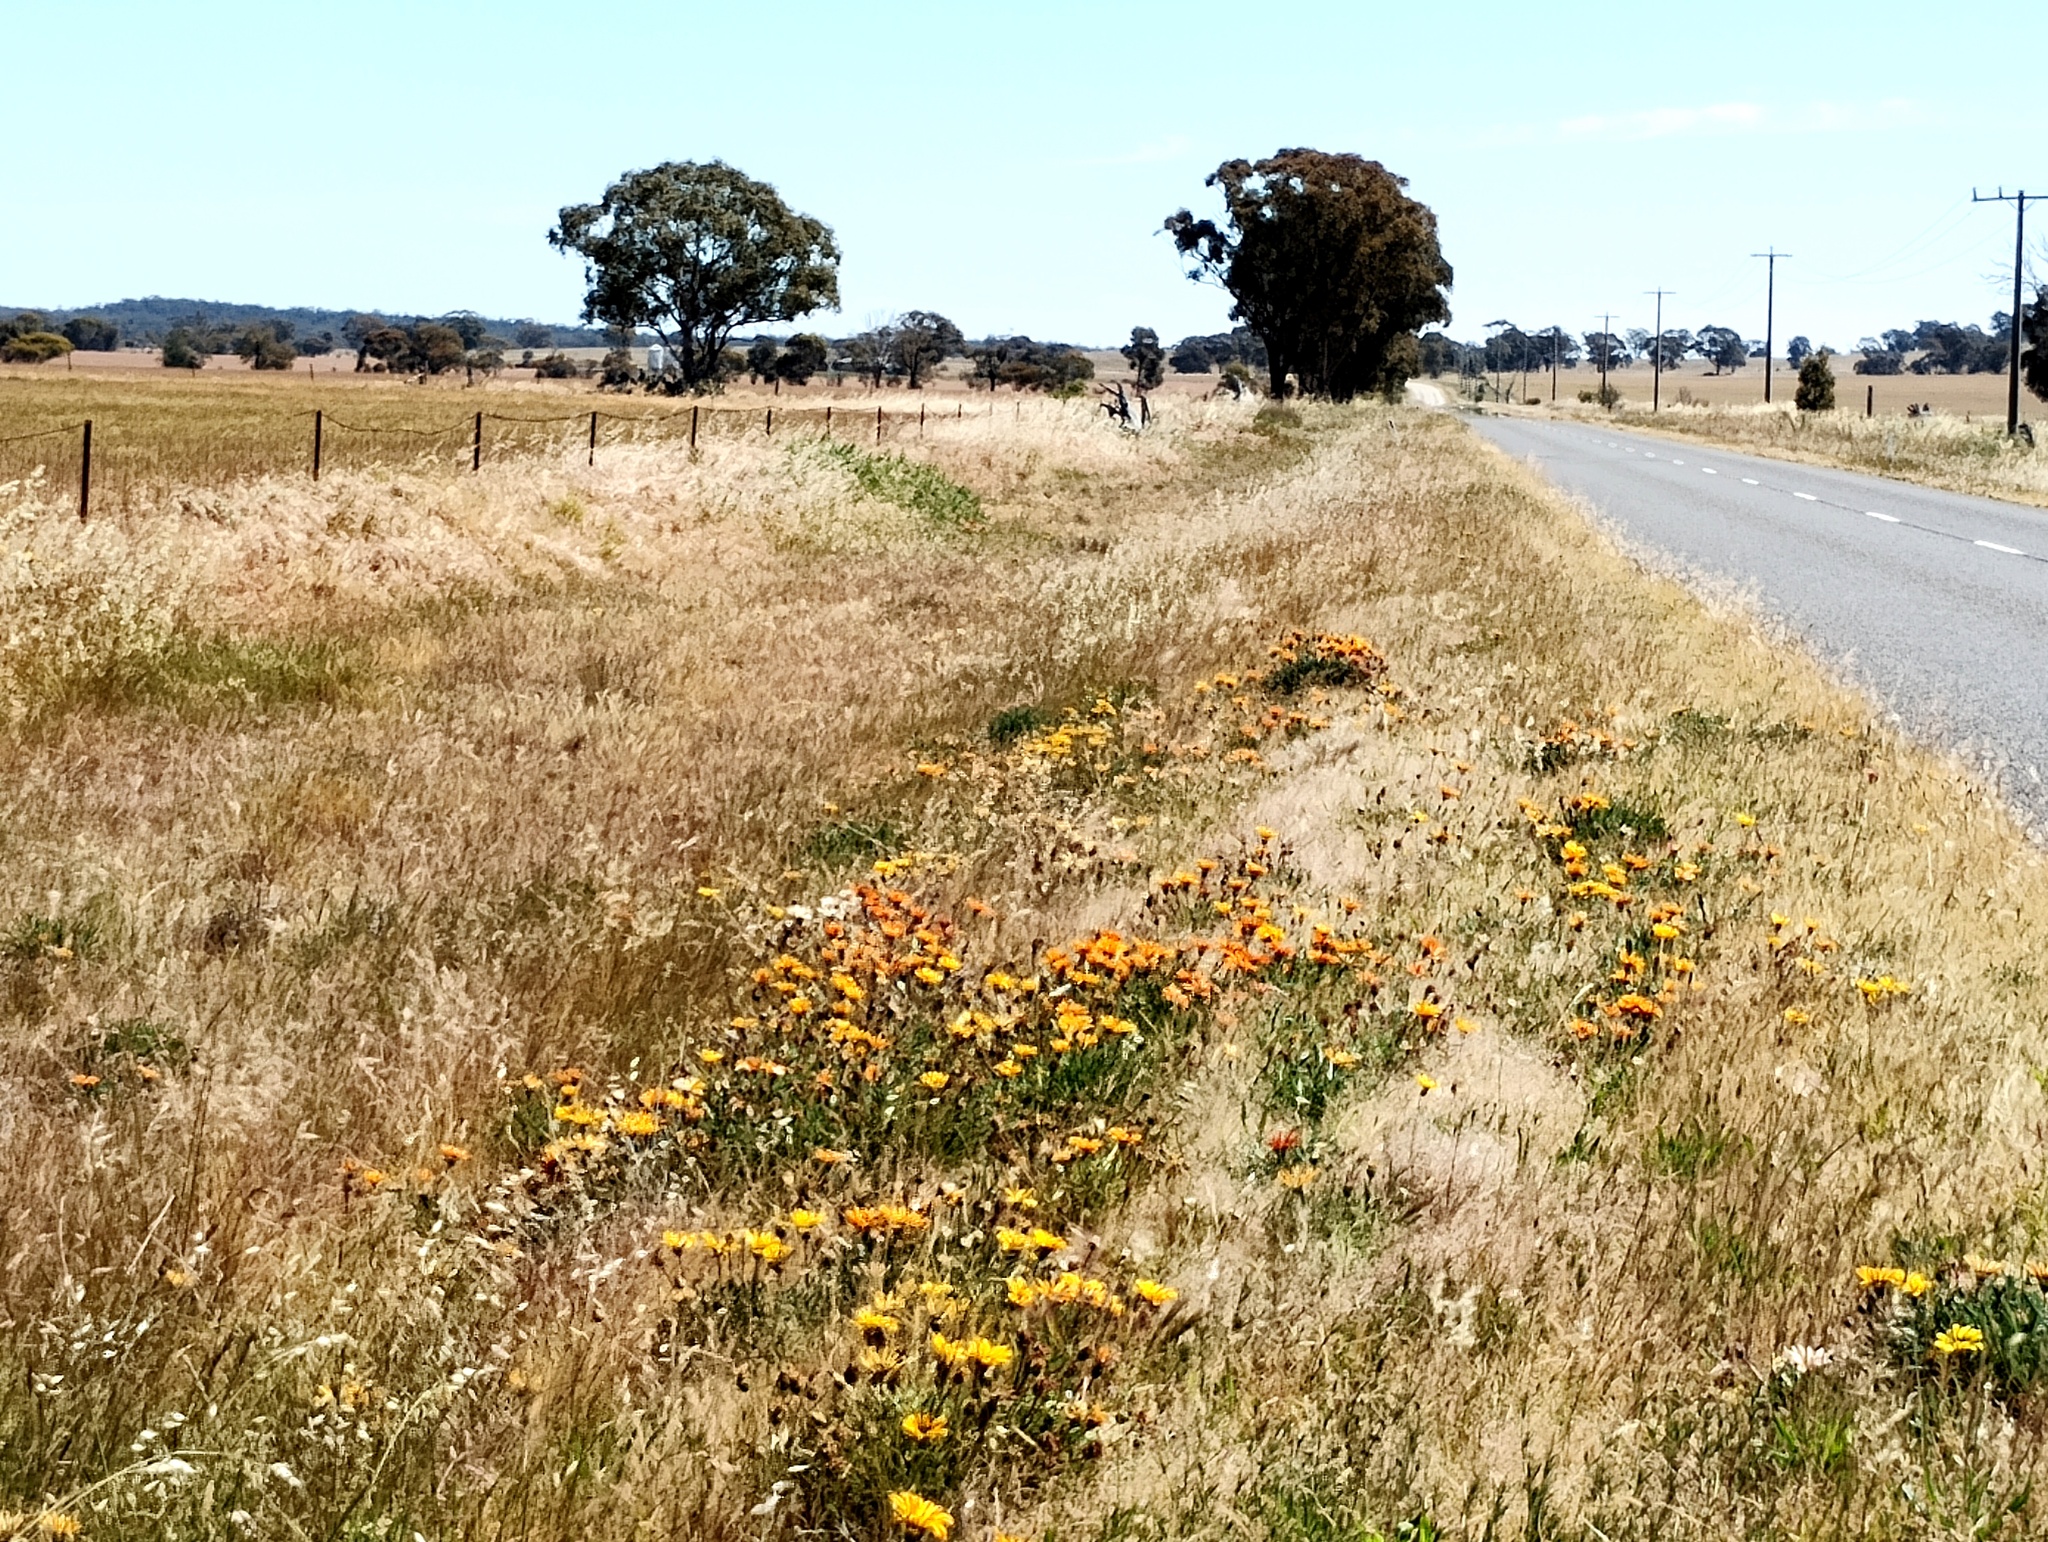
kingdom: Plantae
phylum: Tracheophyta
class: Magnoliopsida
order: Asterales
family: Asteraceae
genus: Gazania
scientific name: Gazania splendens
